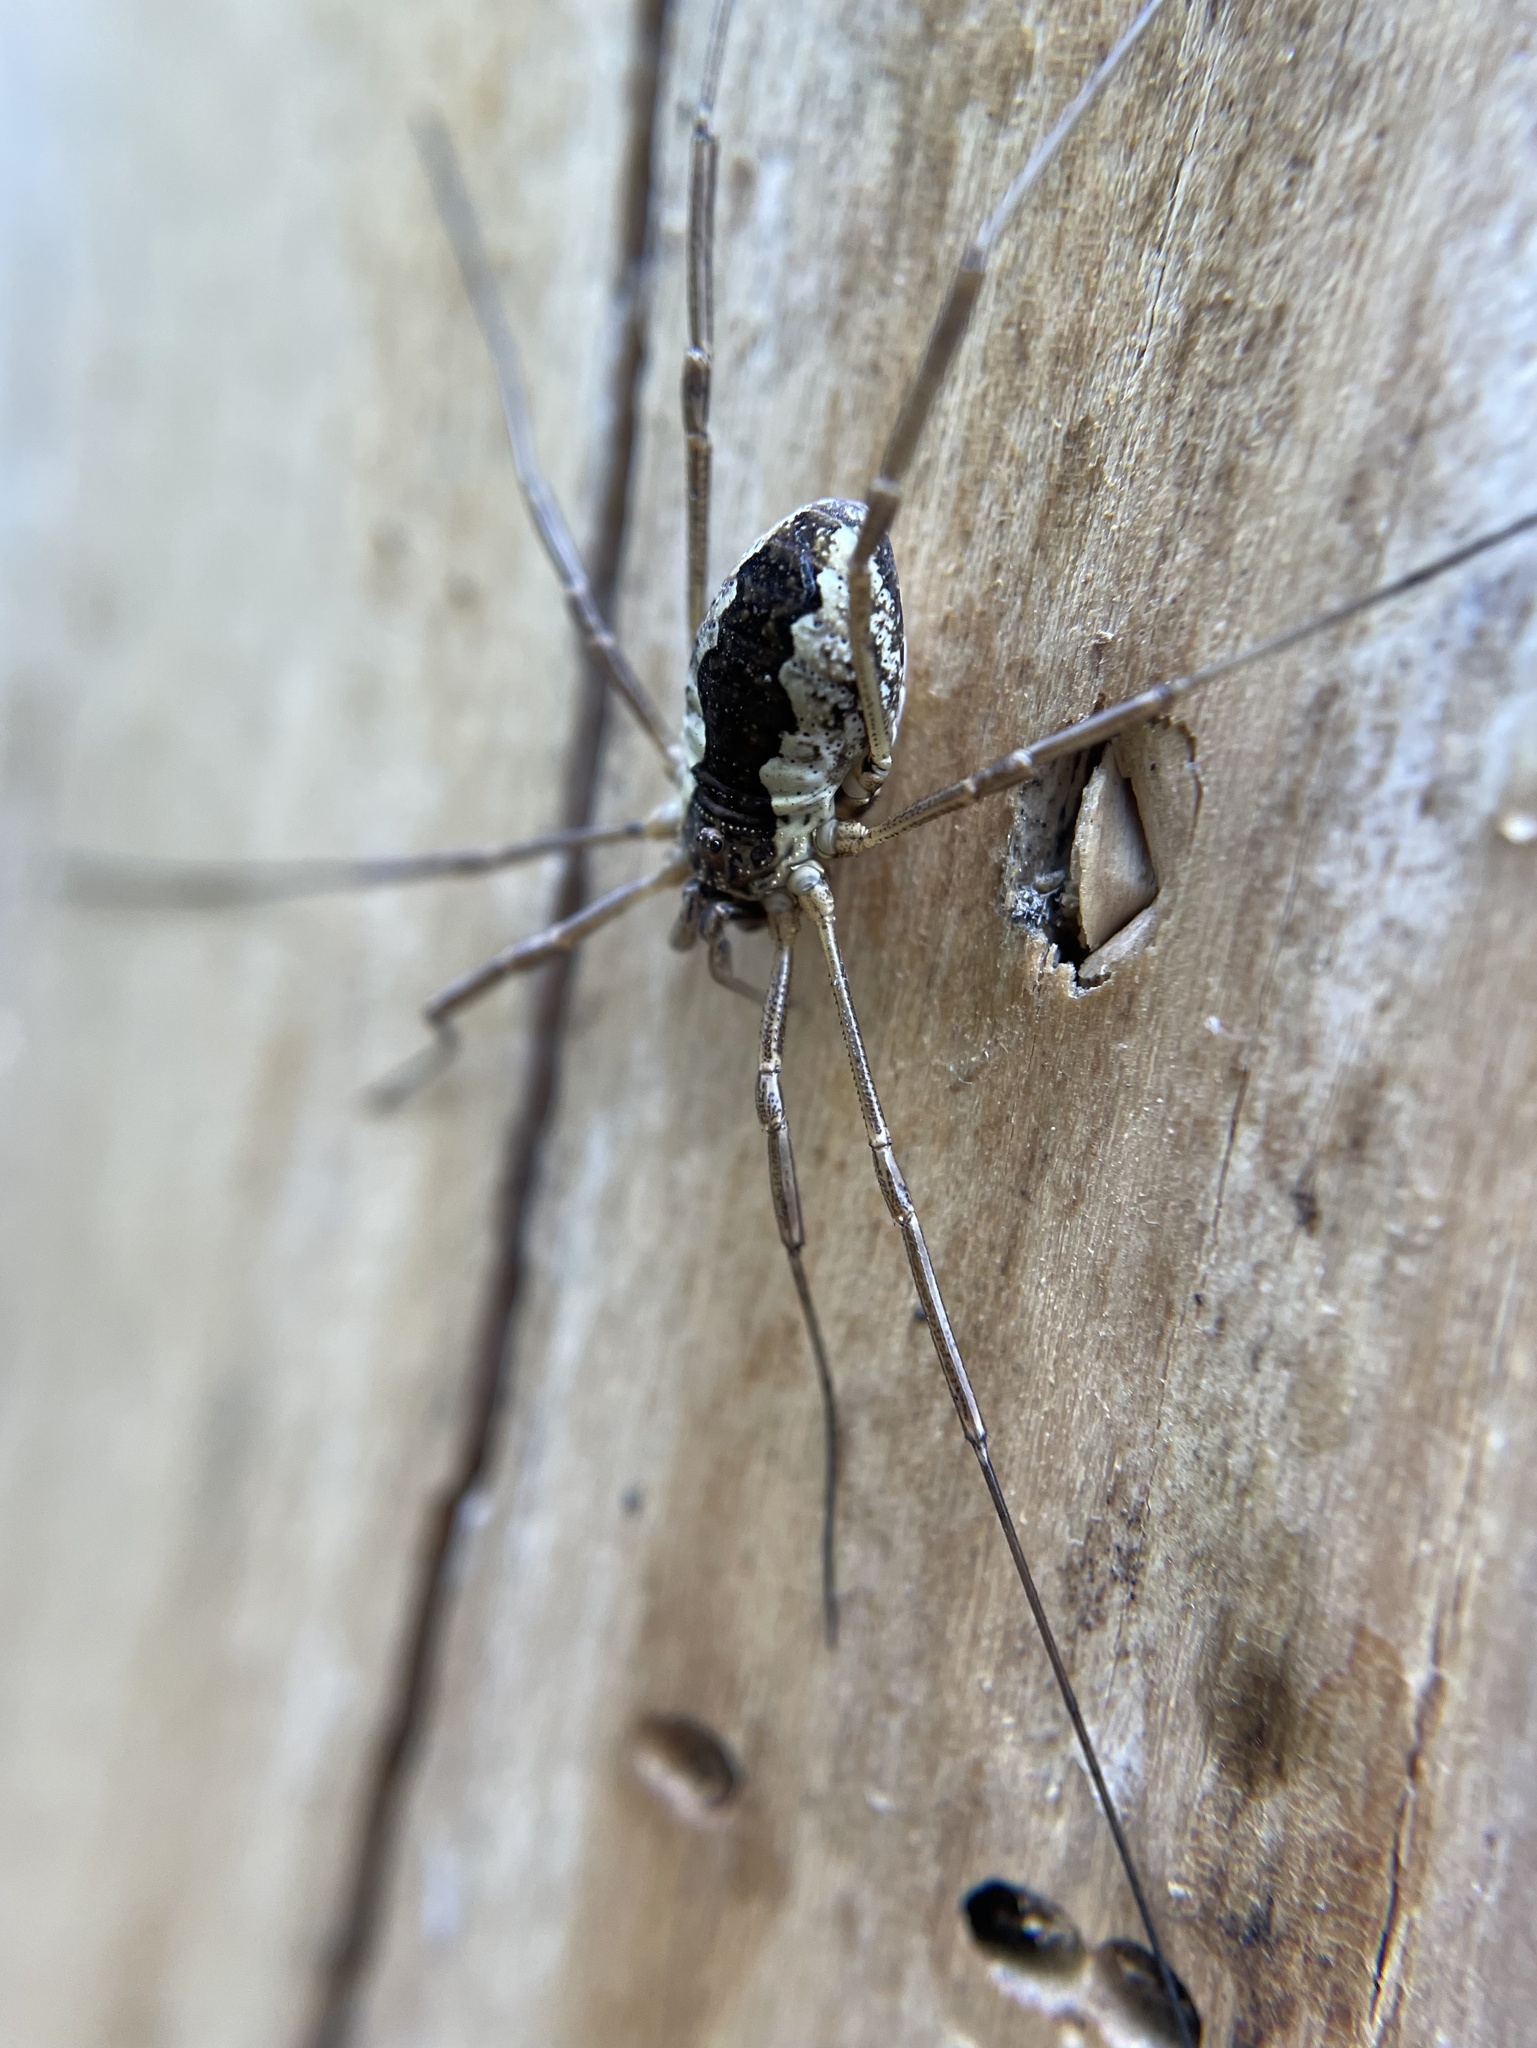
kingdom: Animalia
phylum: Arthropoda
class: Arachnida
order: Opiliones
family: Phalangiidae
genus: Mitopus
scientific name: Mitopus morio
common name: Saddleback harvestman
